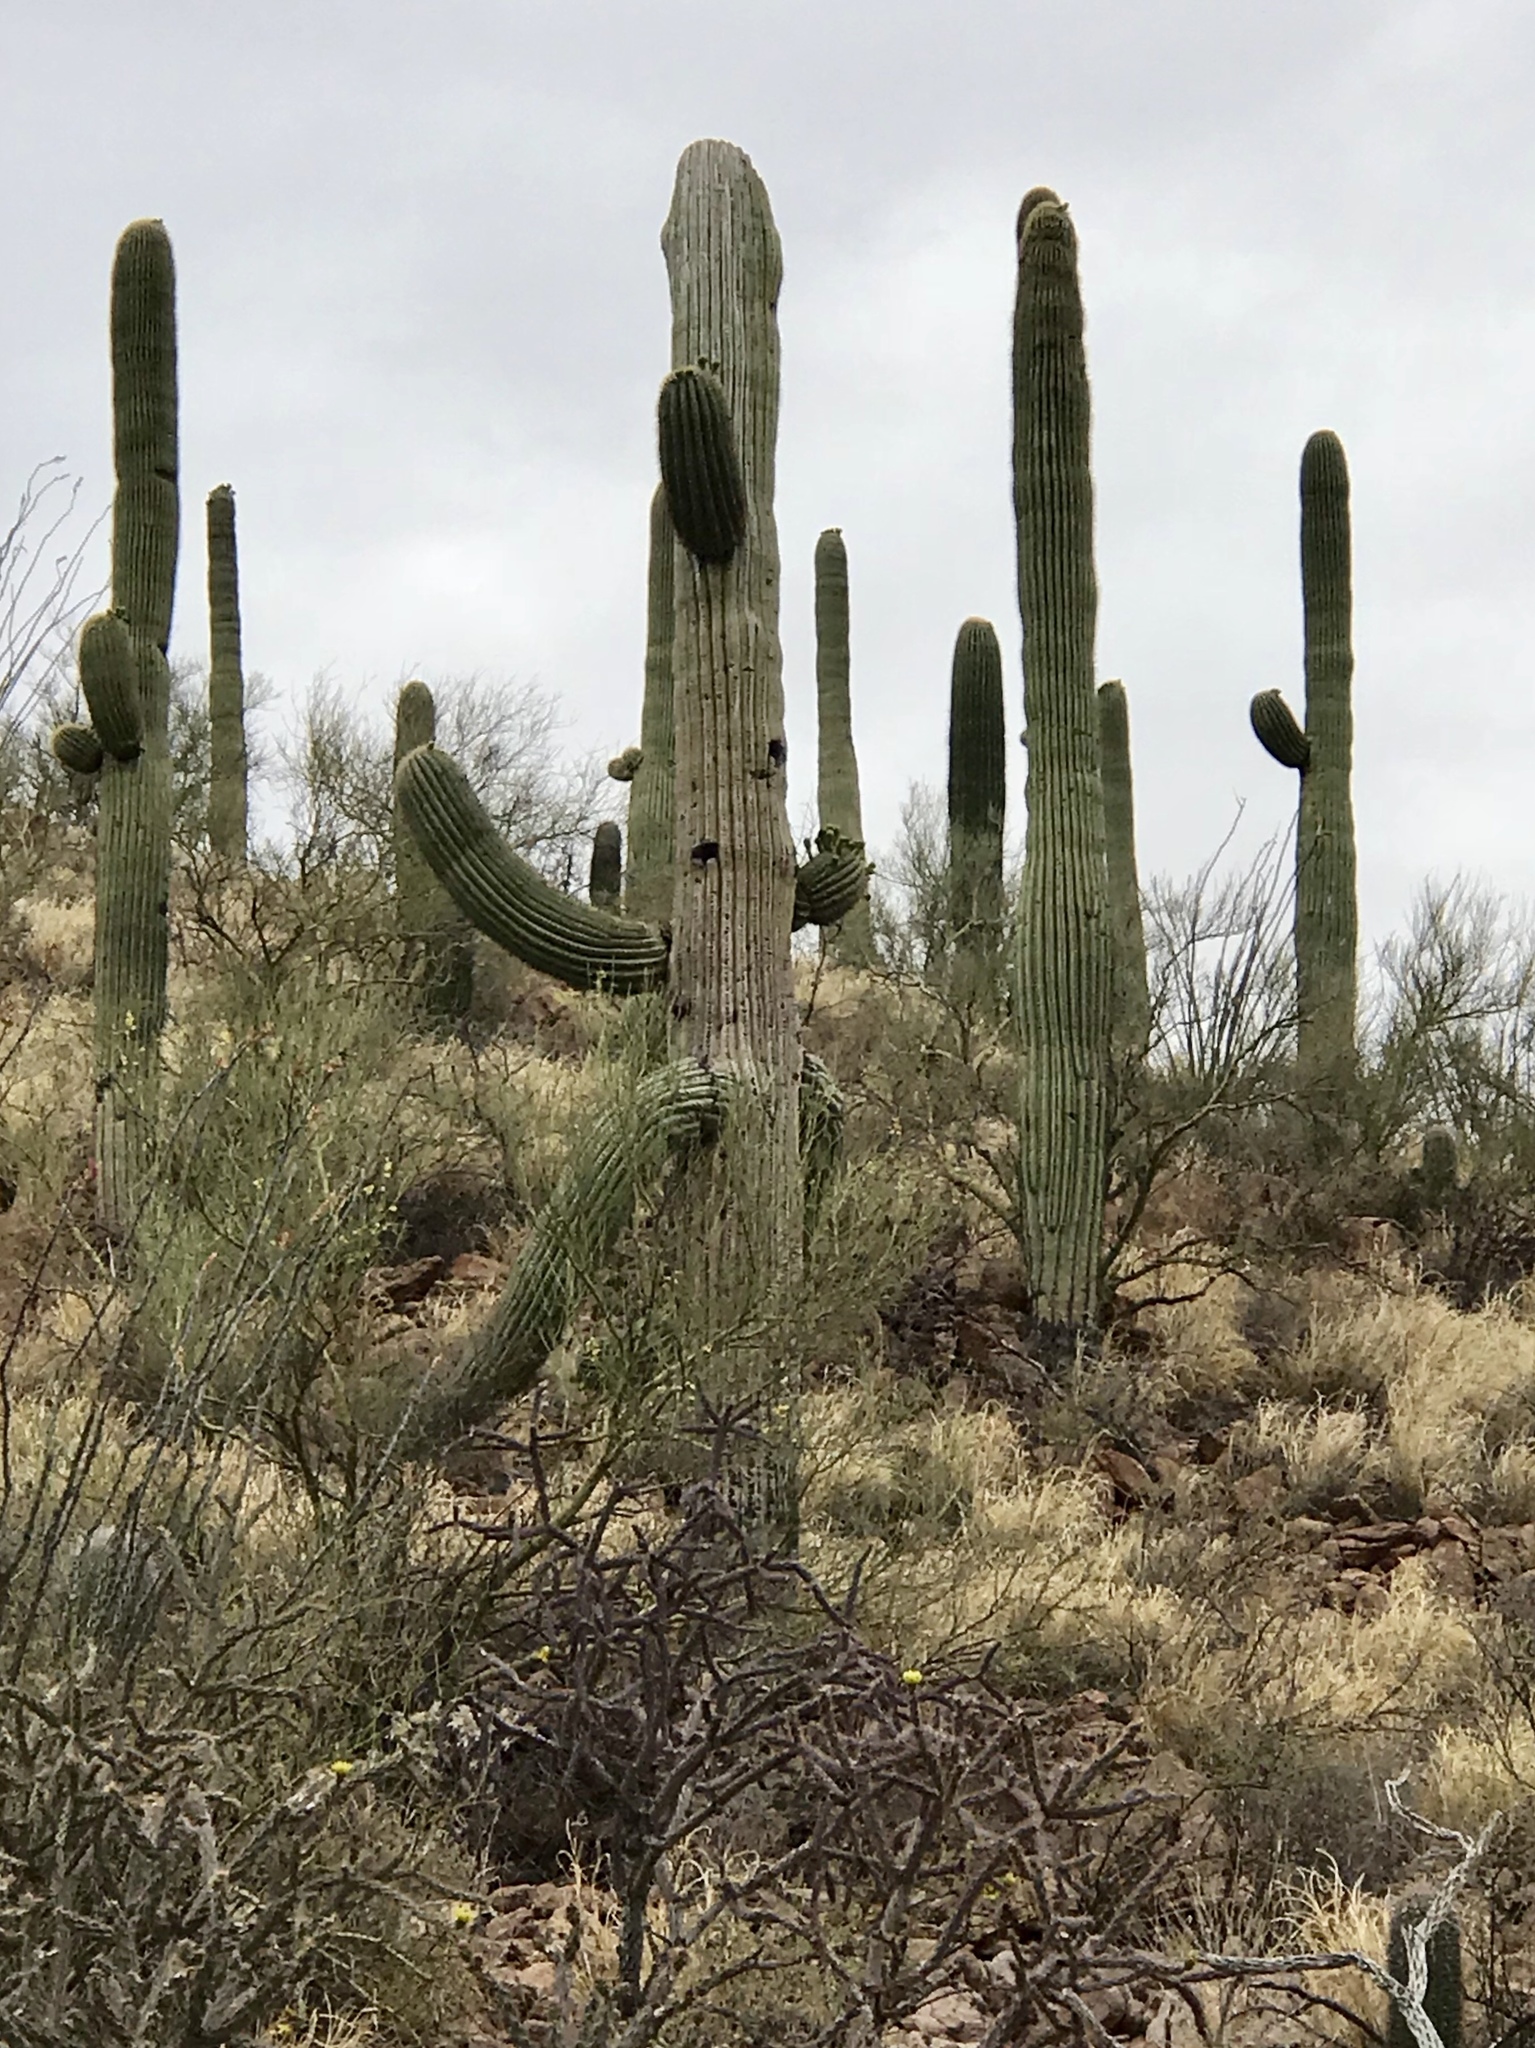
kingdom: Plantae
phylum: Tracheophyta
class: Magnoliopsida
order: Caryophyllales
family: Cactaceae
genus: Carnegiea
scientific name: Carnegiea gigantea
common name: Saguaro
